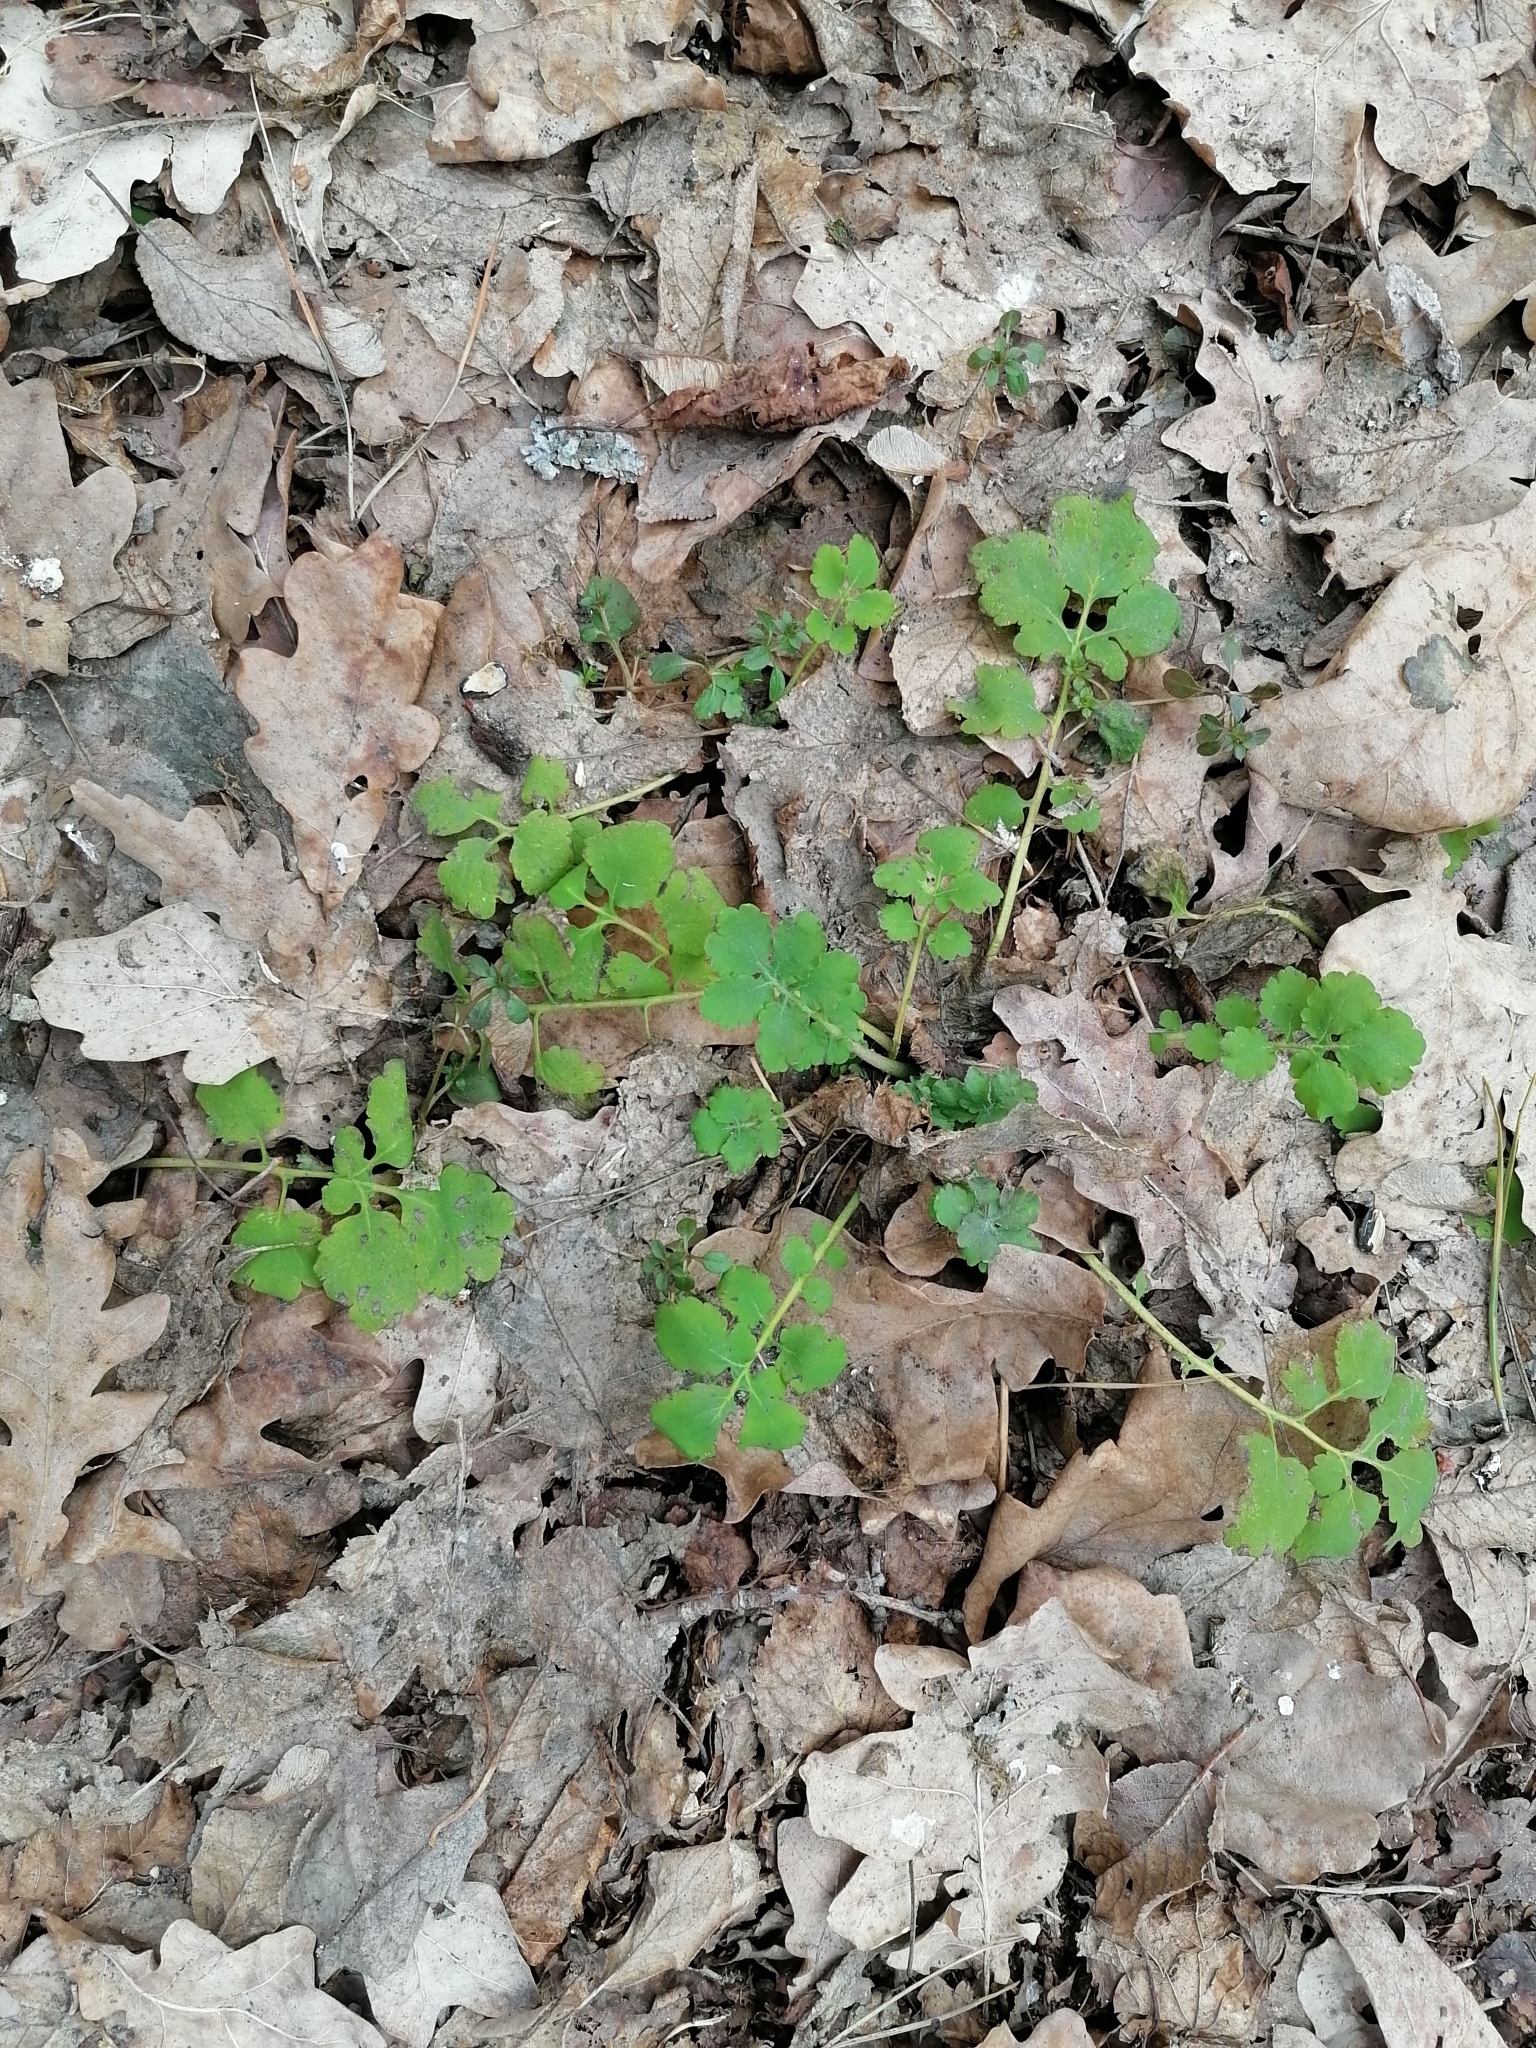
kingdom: Plantae
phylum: Tracheophyta
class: Magnoliopsida
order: Ranunculales
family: Papaveraceae
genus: Chelidonium
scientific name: Chelidonium majus
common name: Greater celandine
